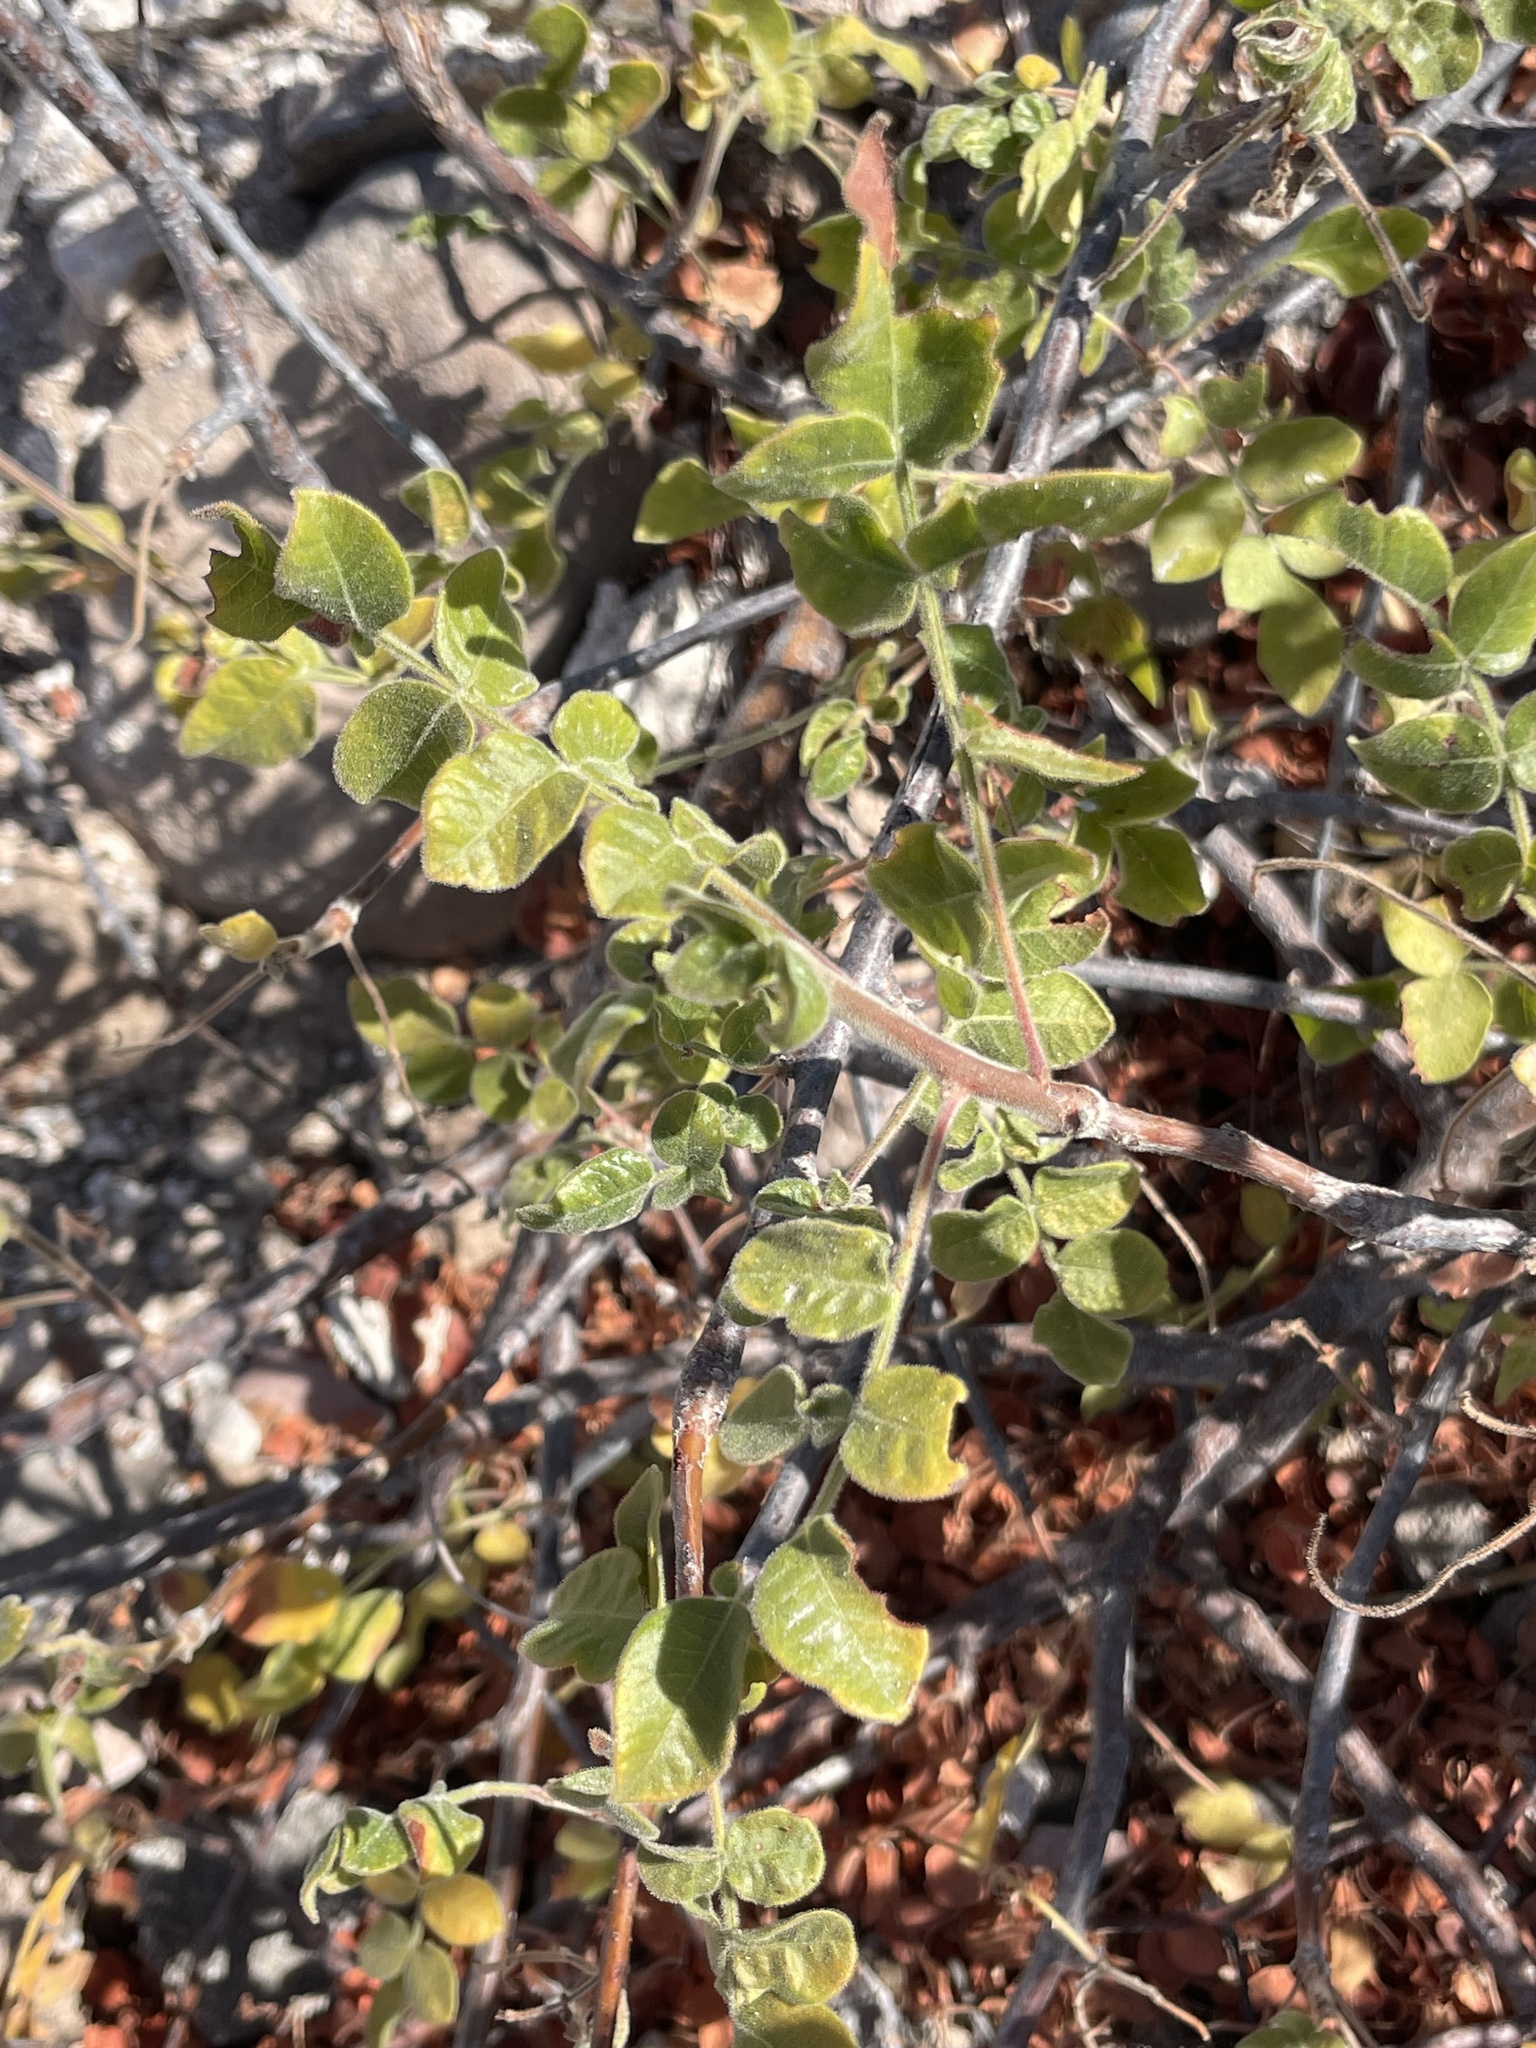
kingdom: Plantae
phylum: Tracheophyta
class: Magnoliopsida
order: Sapindales
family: Anacardiaceae
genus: Cyrtocarpa
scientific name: Cyrtocarpa edulis
